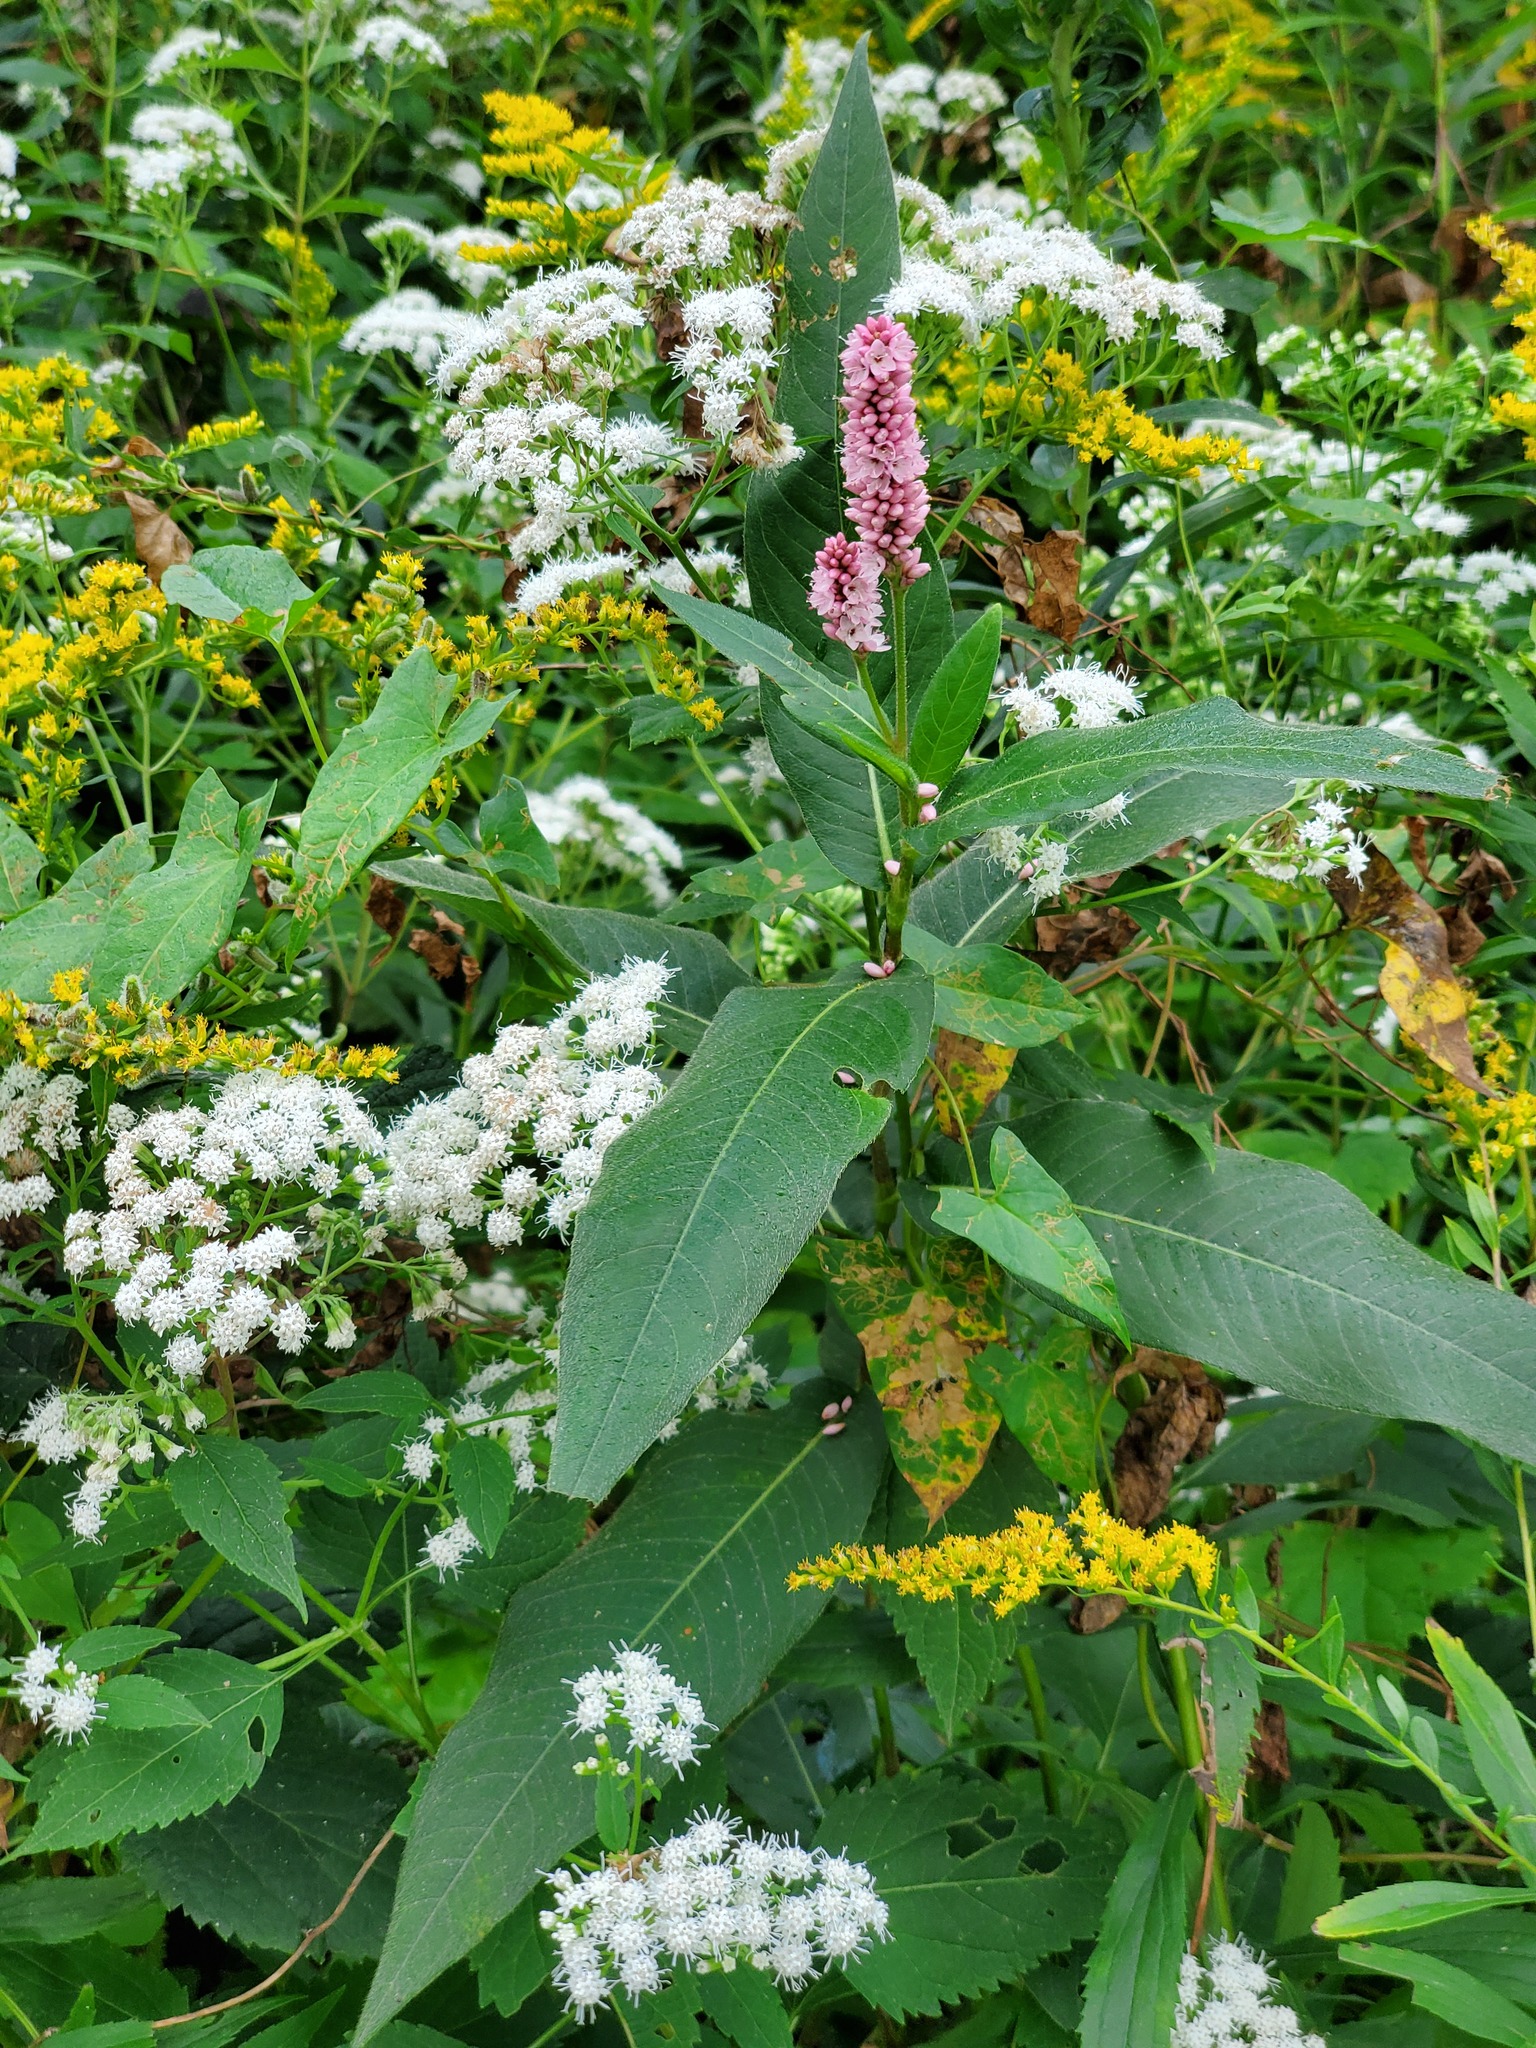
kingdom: Plantae
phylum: Tracheophyta
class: Magnoliopsida
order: Caryophyllales
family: Polygonaceae
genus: Persicaria
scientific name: Persicaria amphibia
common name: Amphibious bistort
